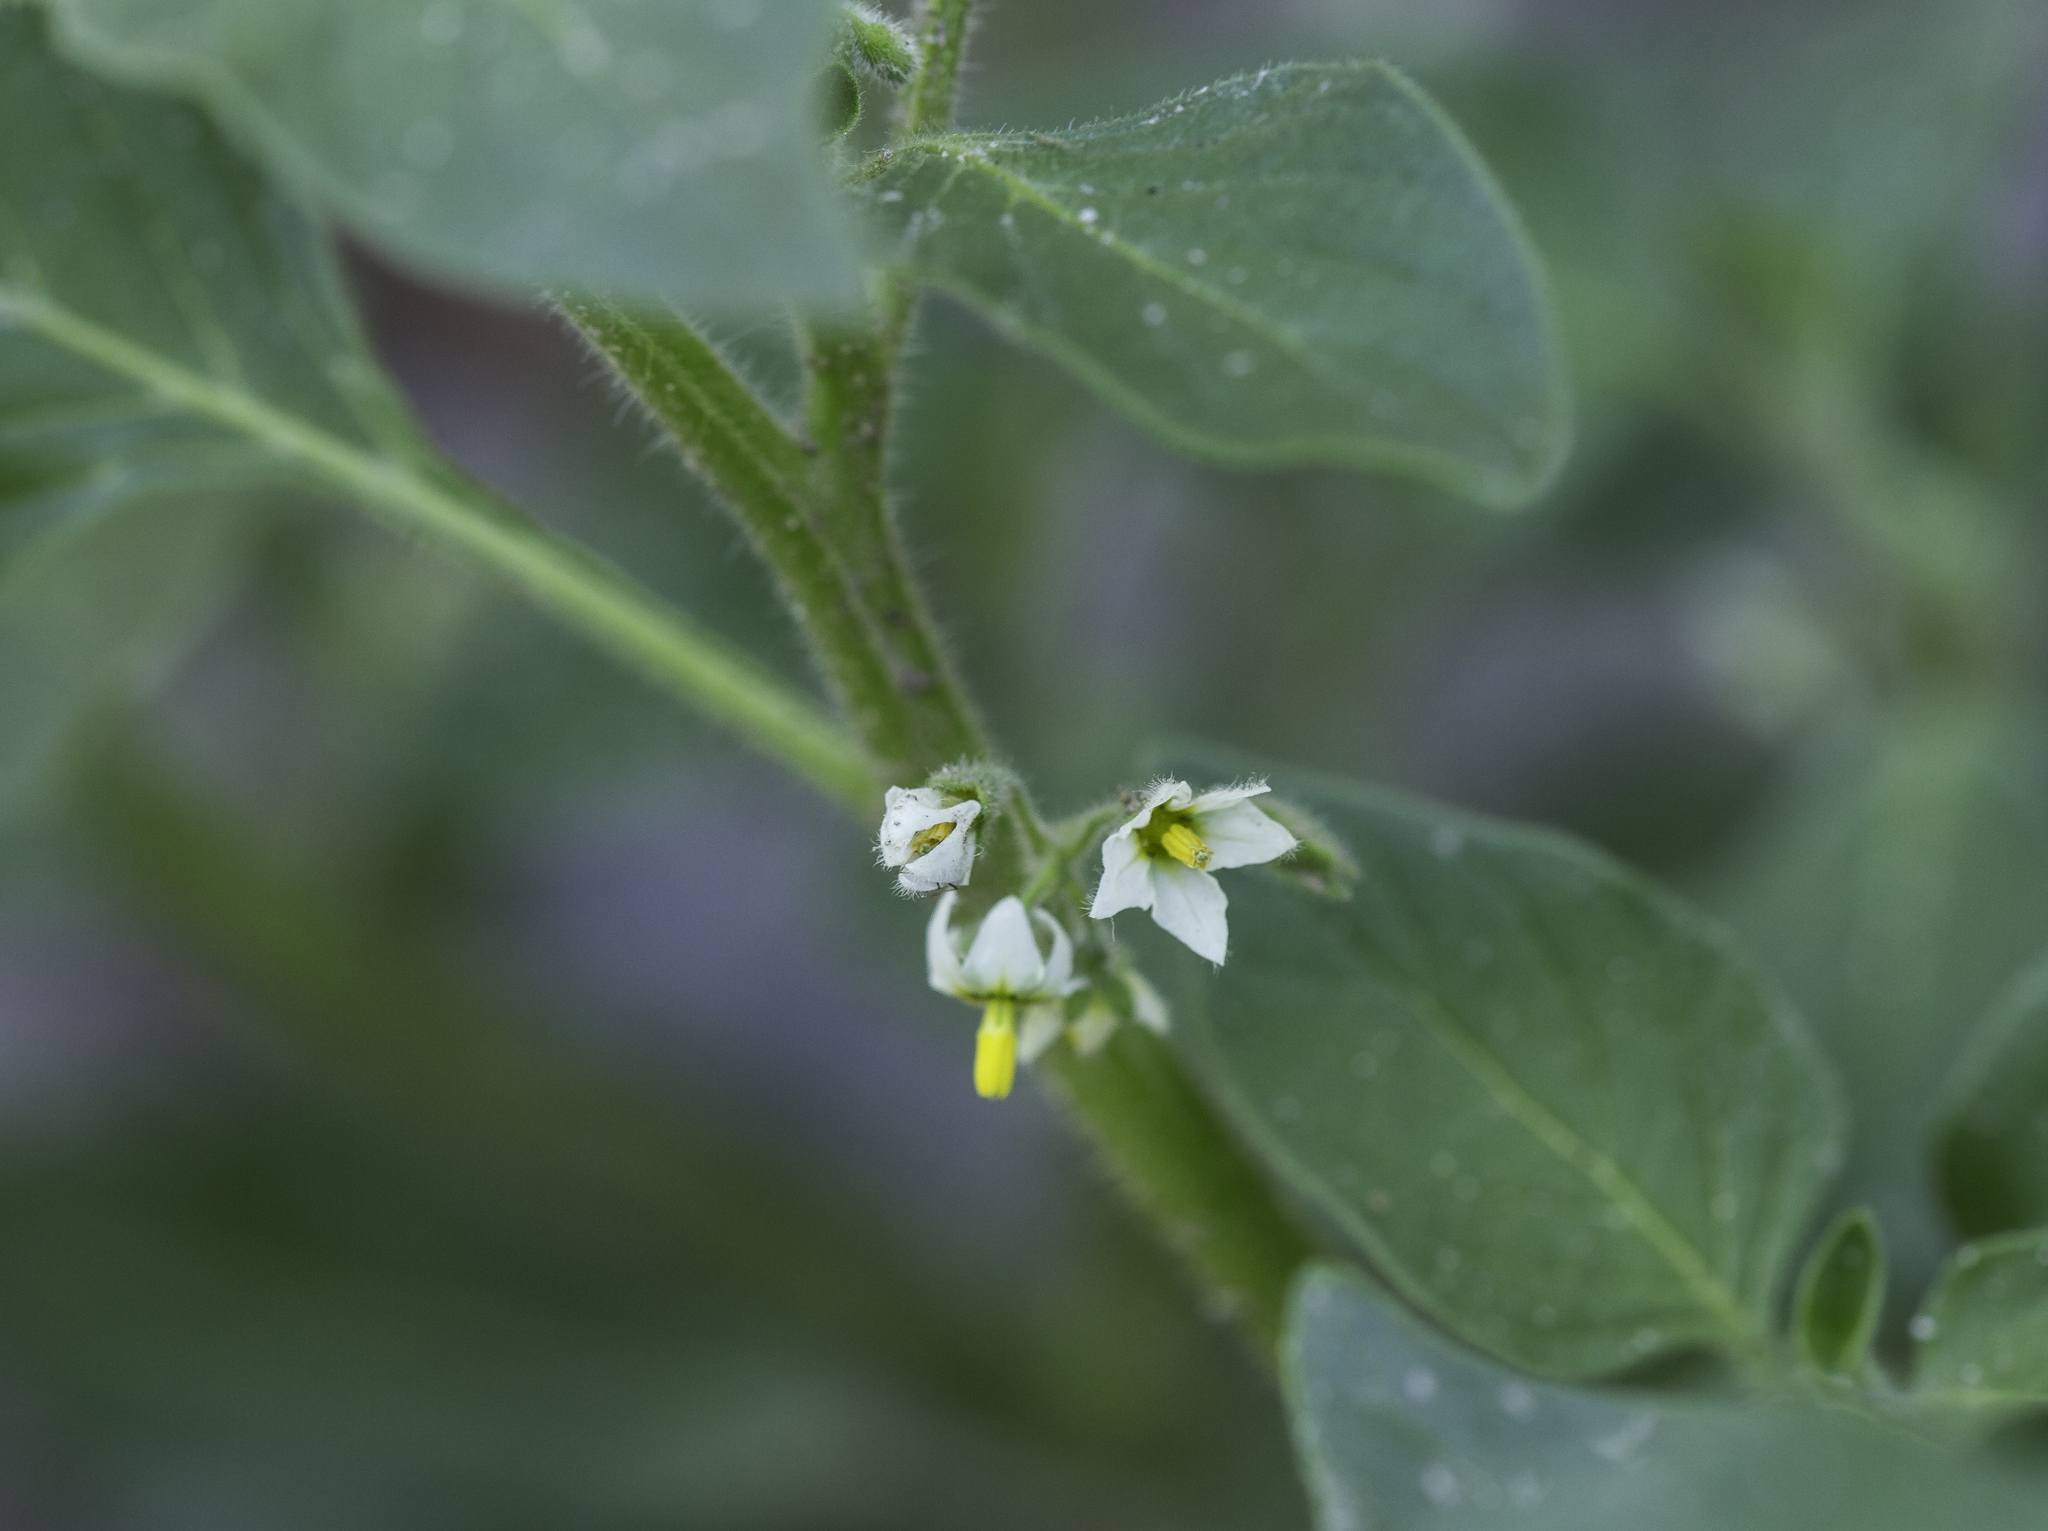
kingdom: Plantae
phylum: Tracheophyta
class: Magnoliopsida
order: Solanales
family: Solanaceae
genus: Solanum
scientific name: Solanum nitidibaccatum
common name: Hairy nightshade
